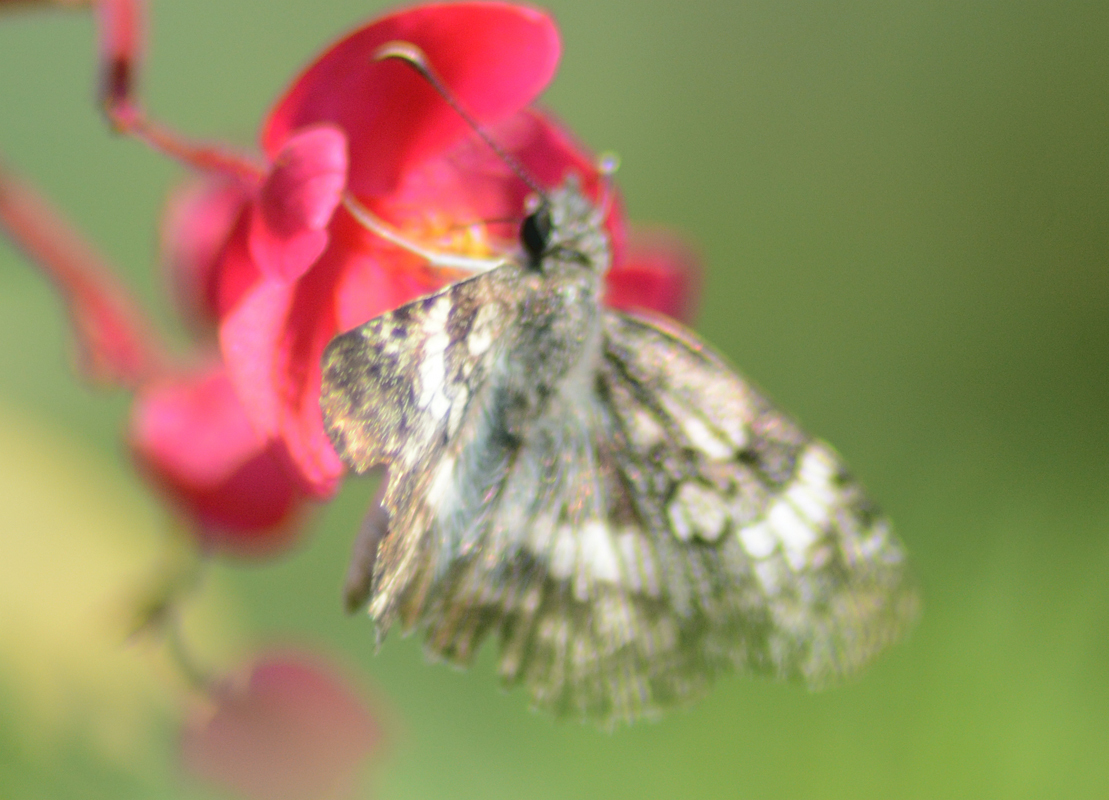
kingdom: Animalia
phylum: Arthropoda
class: Insecta
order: Lepidoptera
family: Hesperiidae
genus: Chiothion
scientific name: Chiothion georgina
